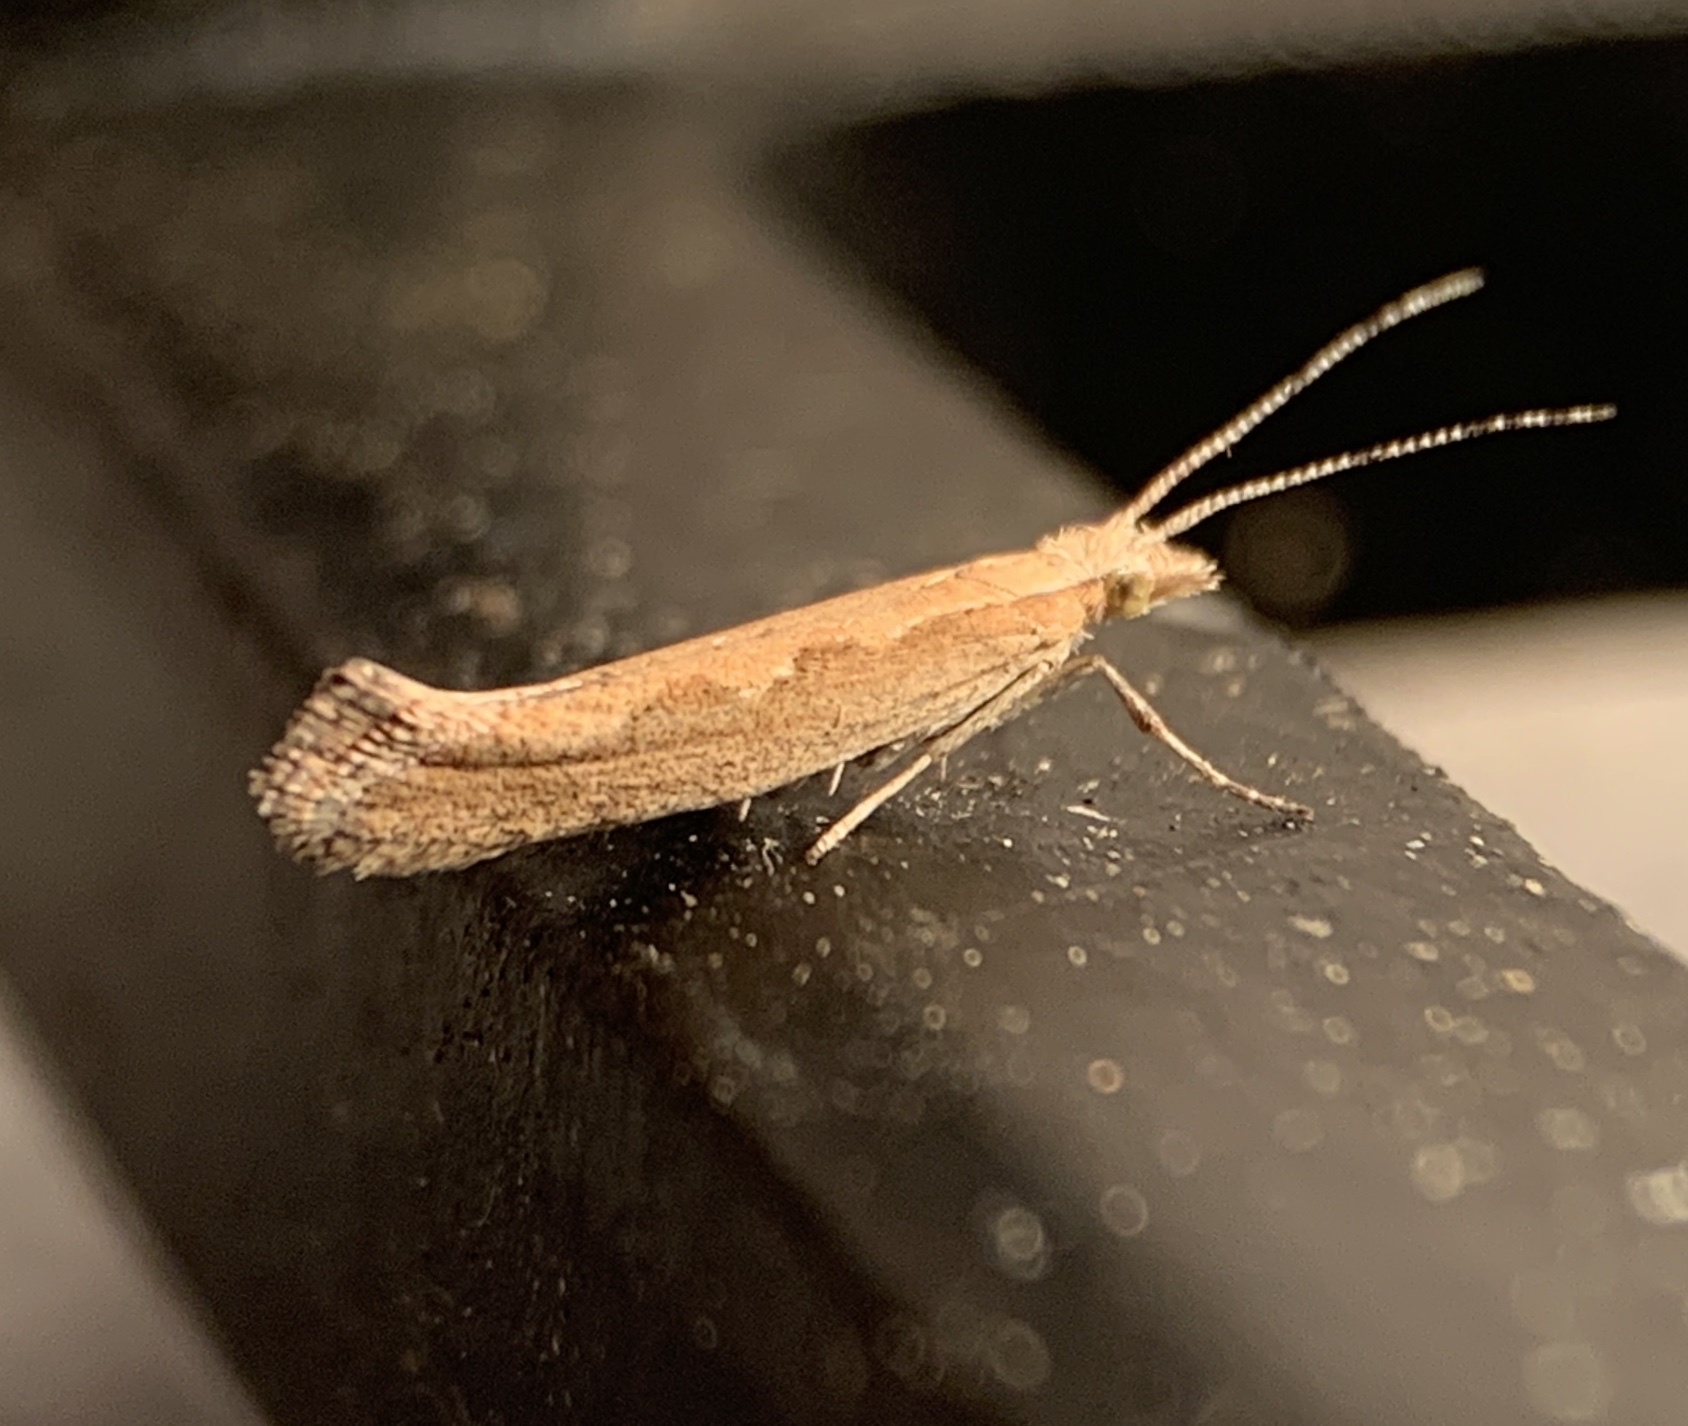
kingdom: Animalia
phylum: Arthropoda
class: Insecta
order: Lepidoptera
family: Plutellidae
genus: Plutella
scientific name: Plutella xylostella
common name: Diamond-back moth
